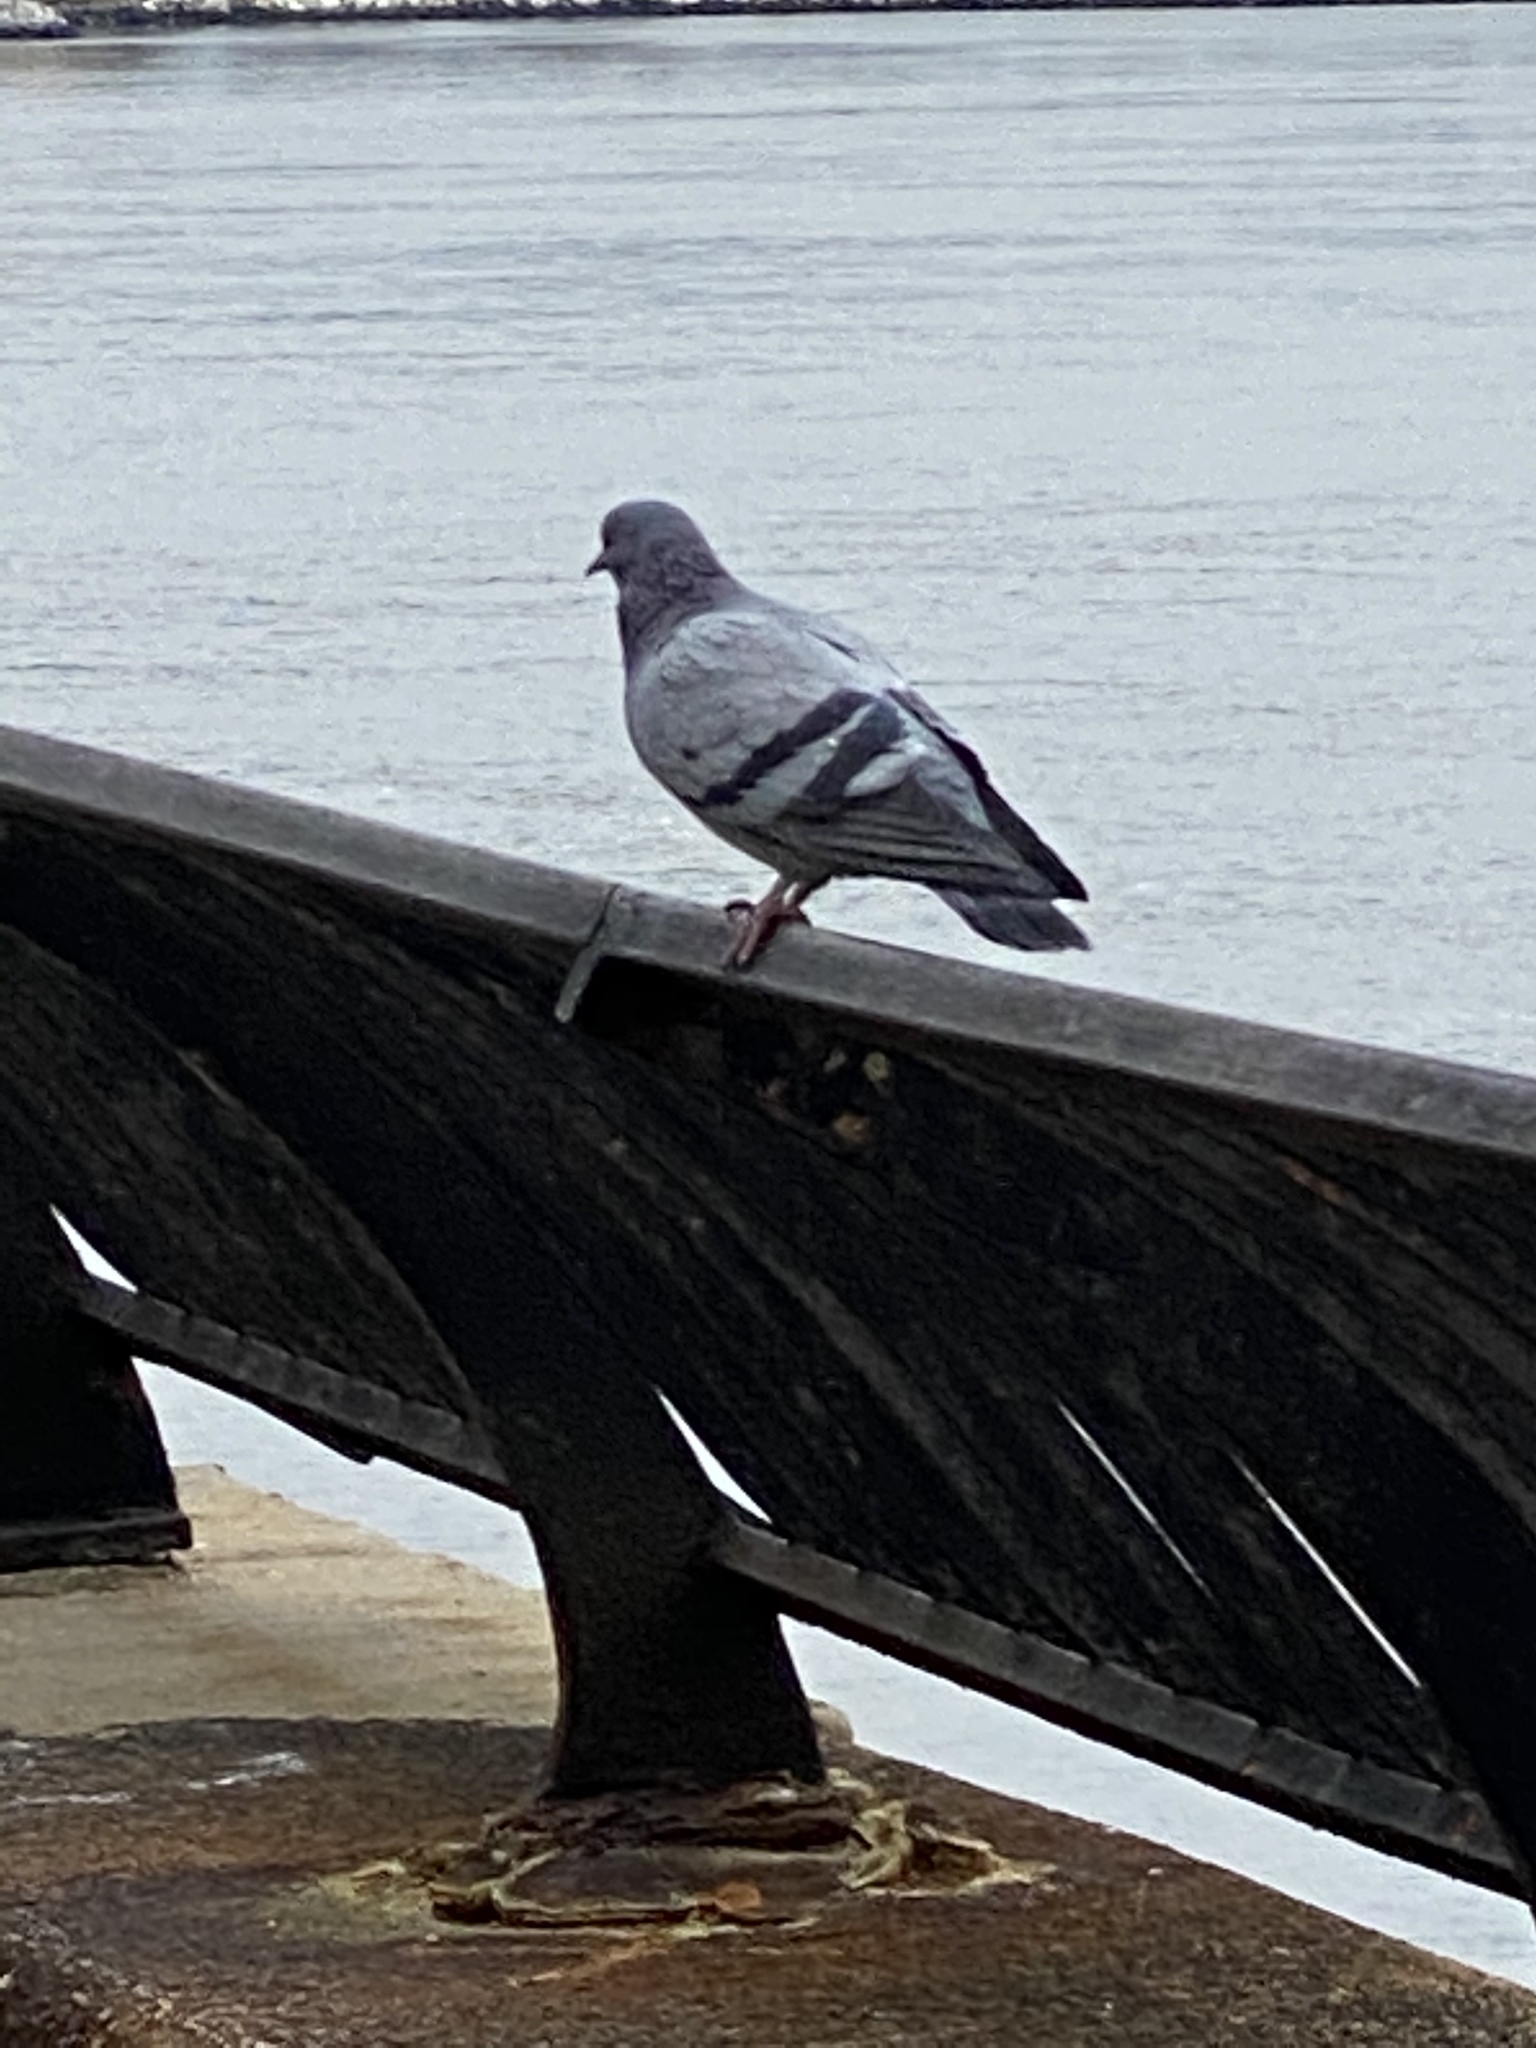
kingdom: Animalia
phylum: Chordata
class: Aves
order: Columbiformes
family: Columbidae
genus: Columba
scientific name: Columba livia
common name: Rock pigeon
